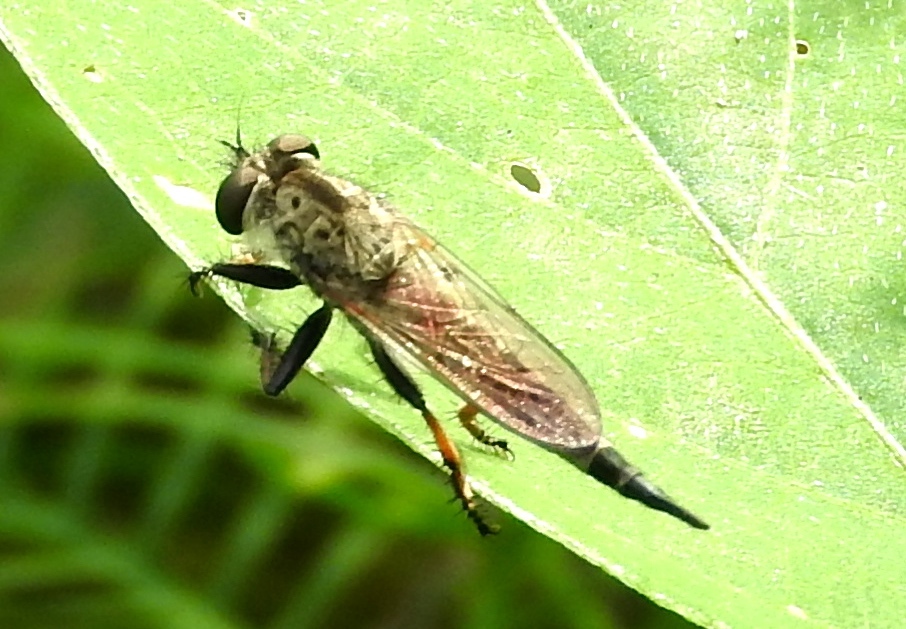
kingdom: Animalia
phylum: Arthropoda
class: Insecta
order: Diptera
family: Asilidae
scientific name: Asilidae
